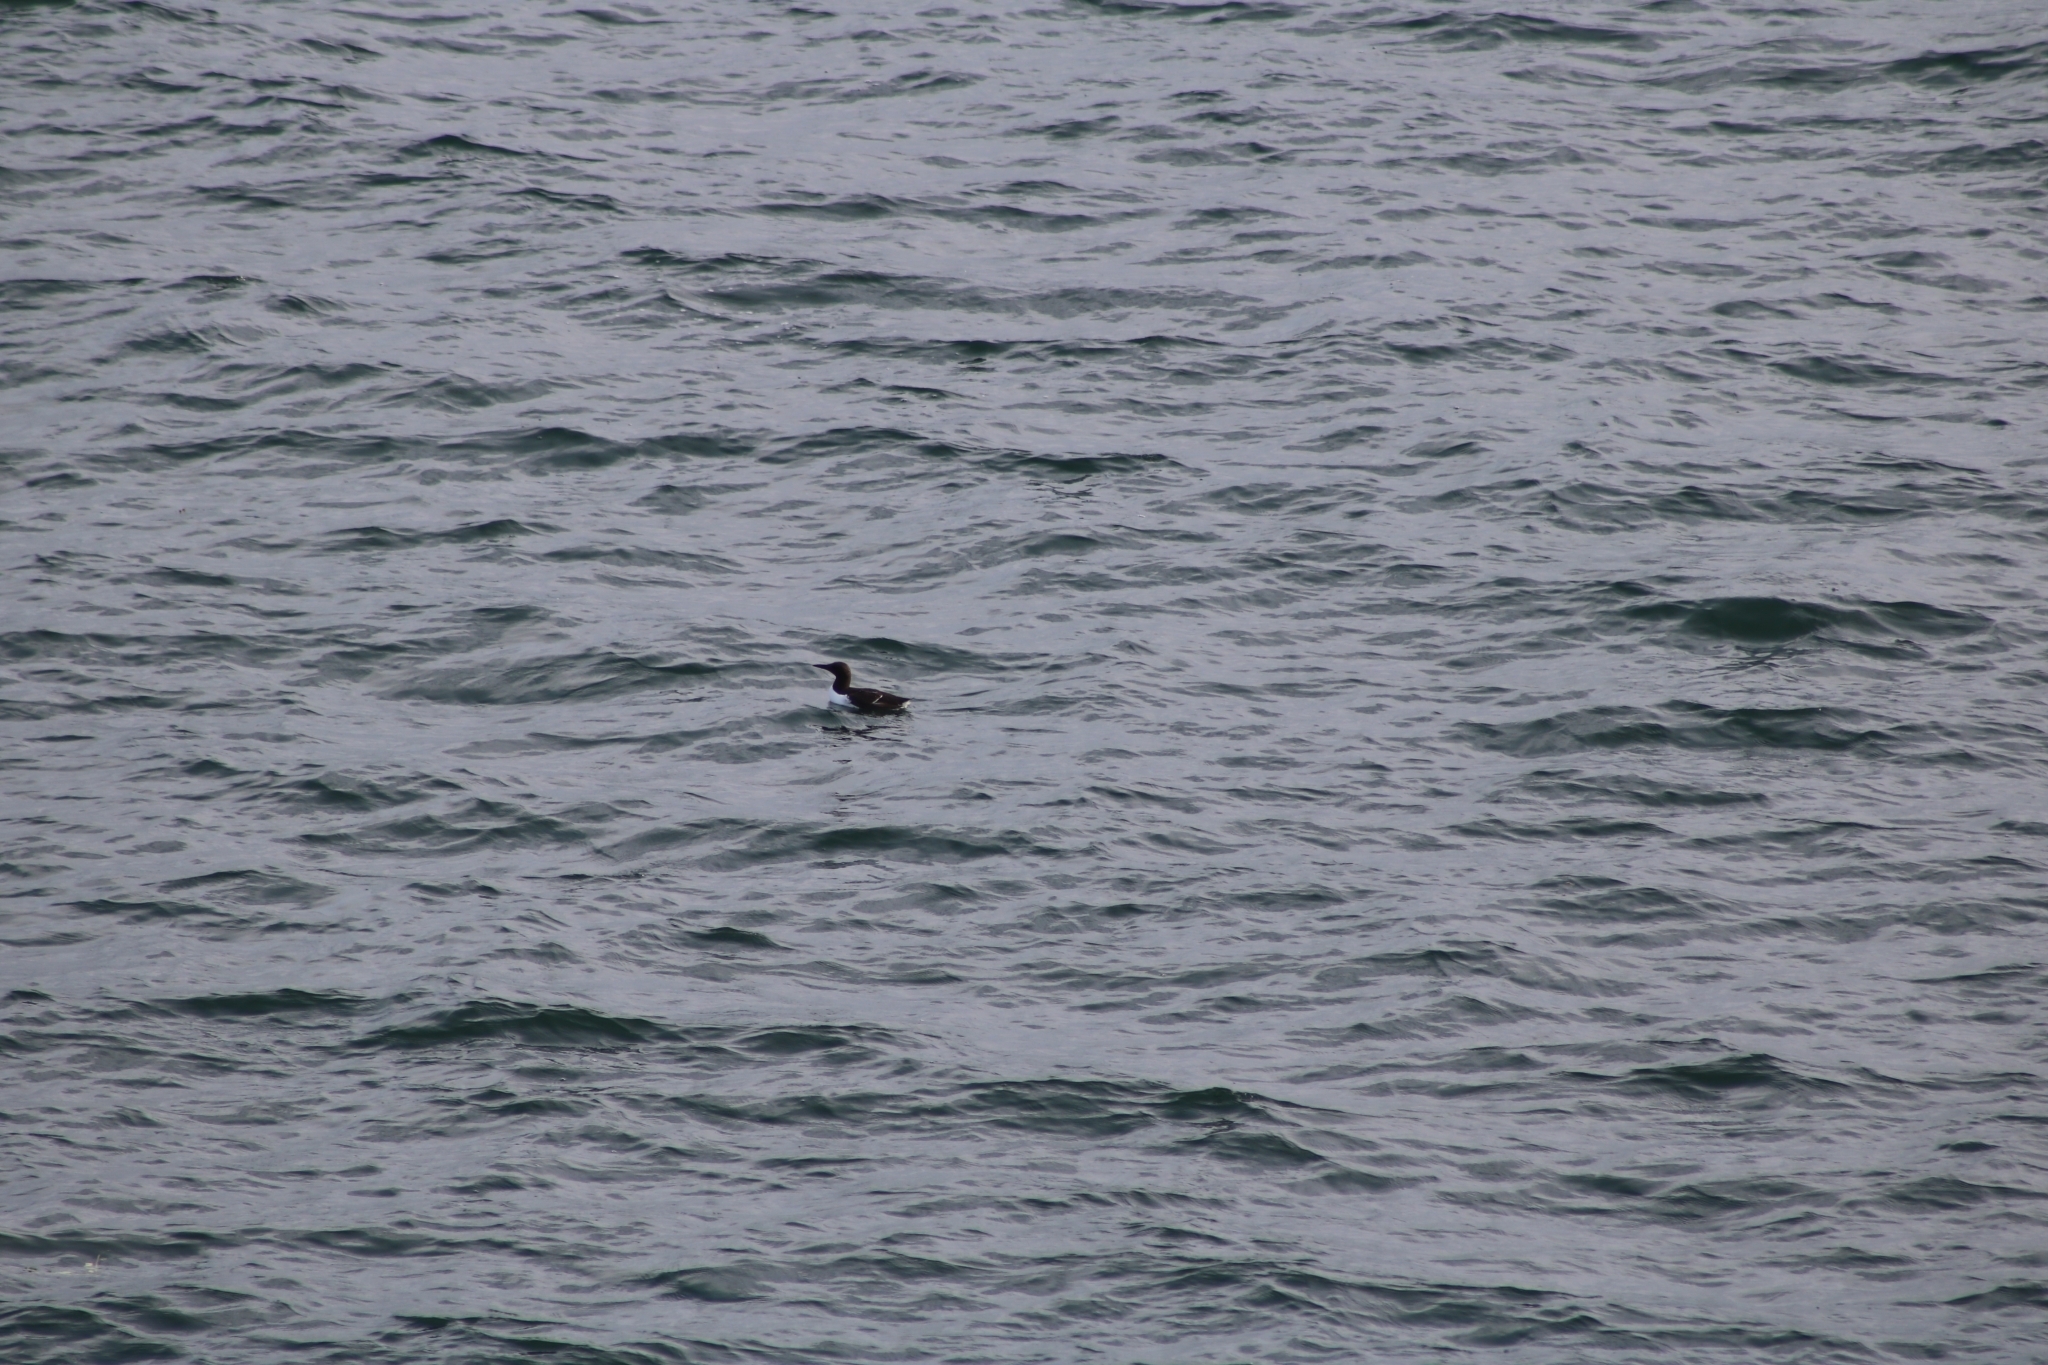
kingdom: Animalia
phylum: Chordata
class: Aves
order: Charadriiformes
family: Alcidae
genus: Uria
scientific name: Uria aalge
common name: Common murre
